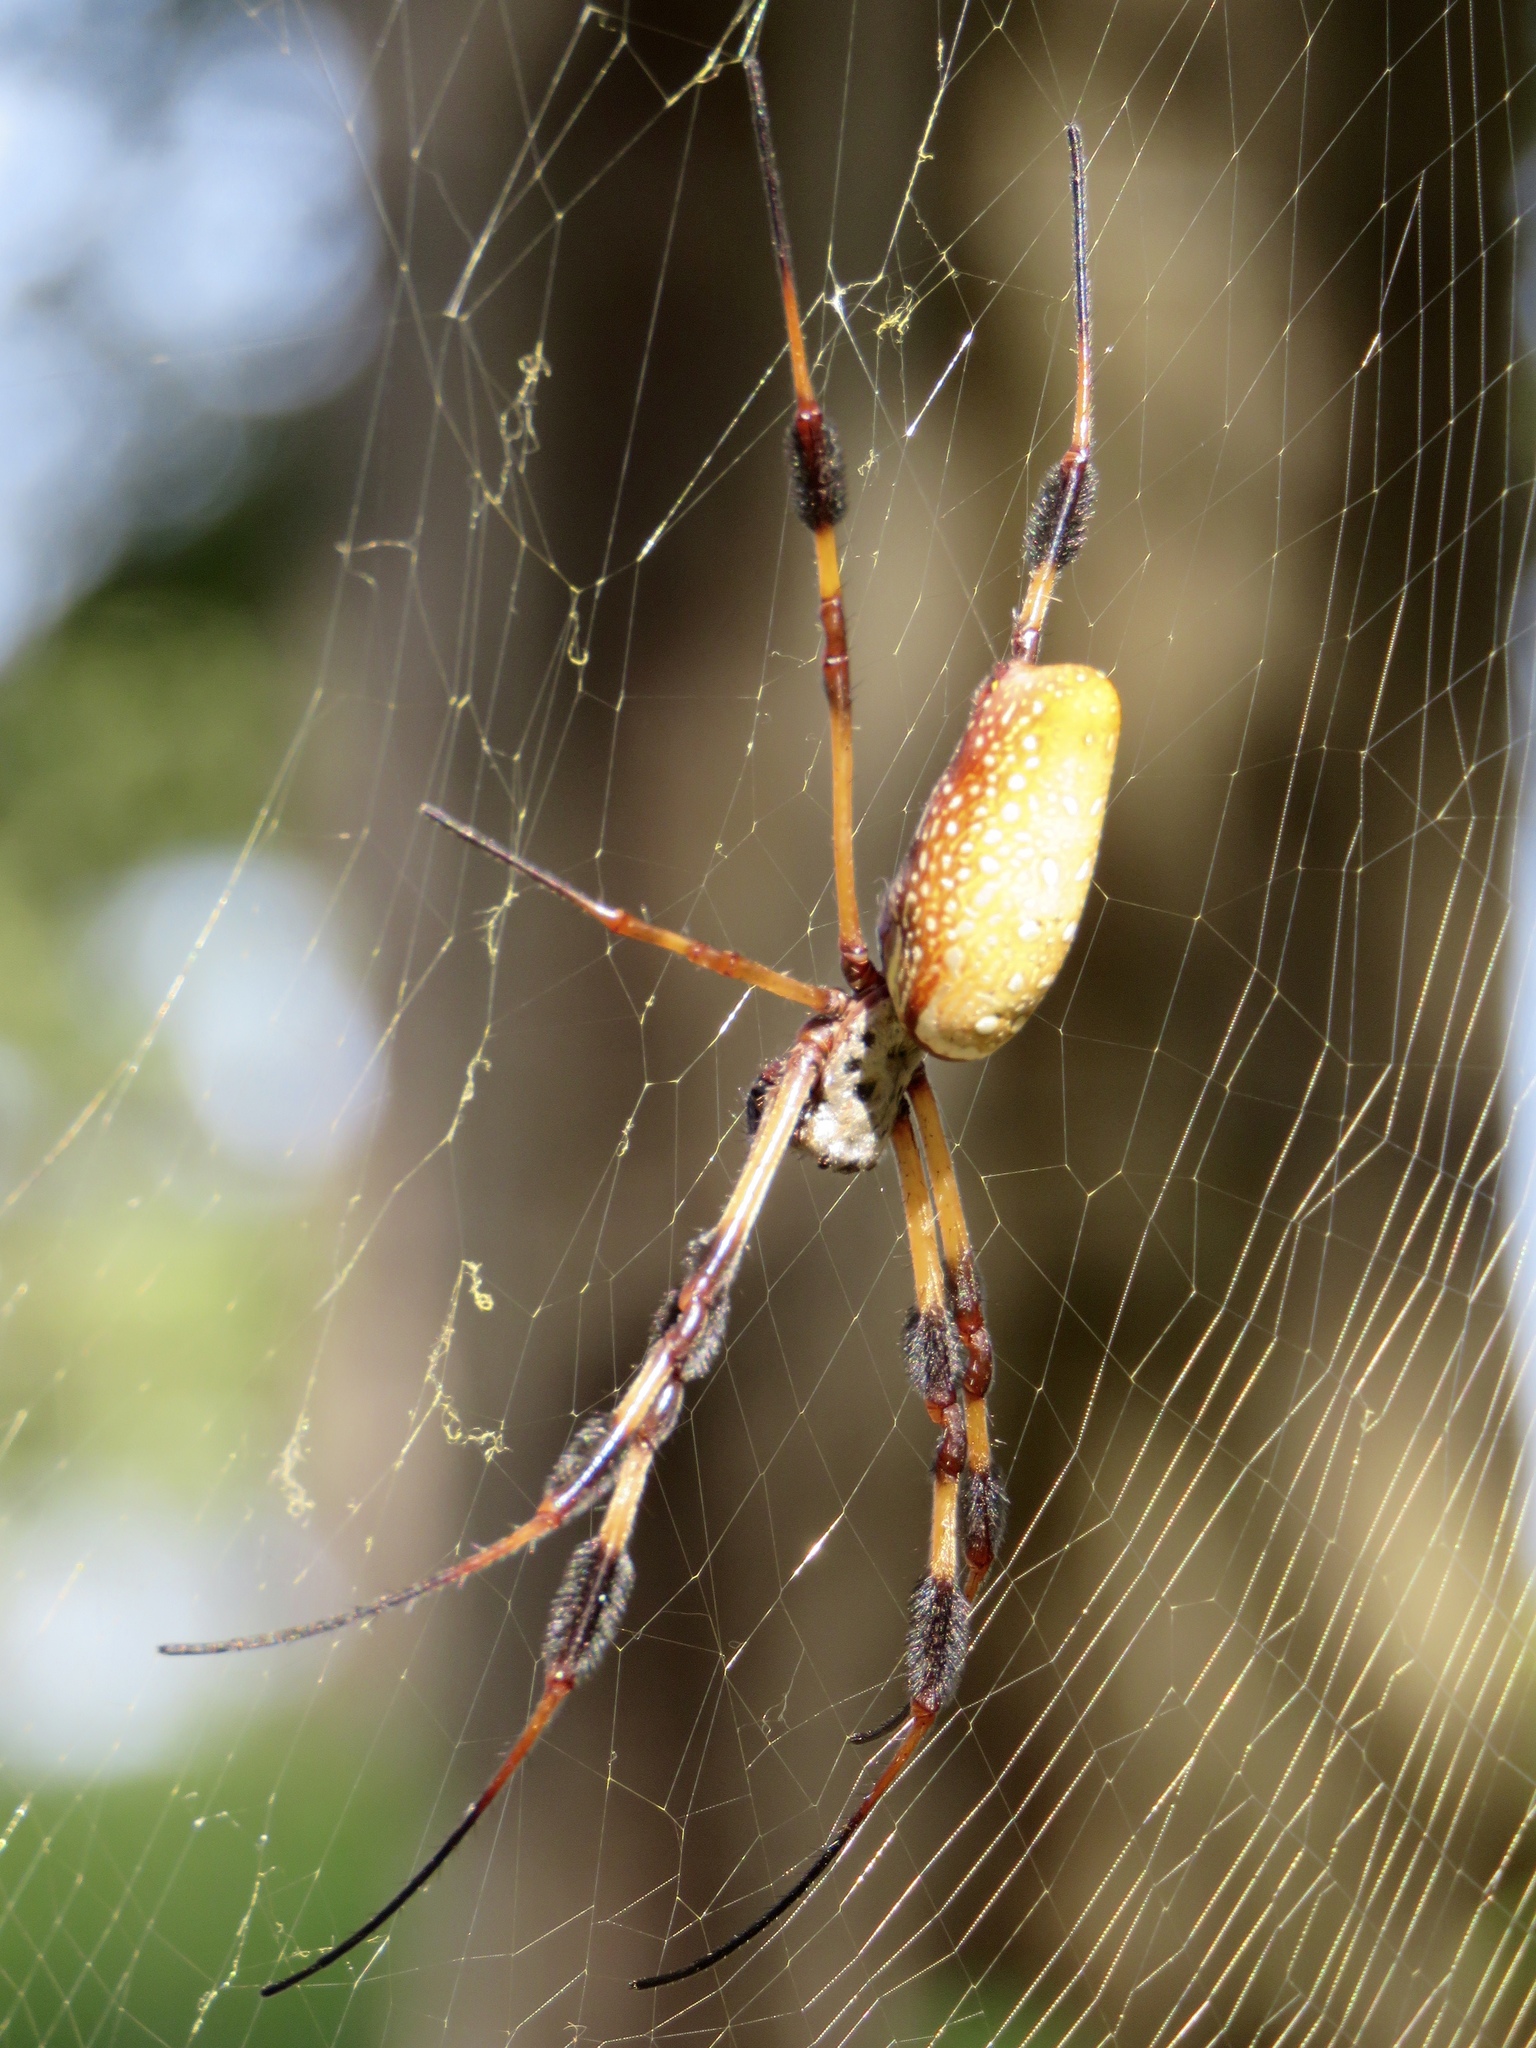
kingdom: Animalia
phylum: Arthropoda
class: Arachnida
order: Araneae
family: Araneidae
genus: Trichonephila
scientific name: Trichonephila clavipes
